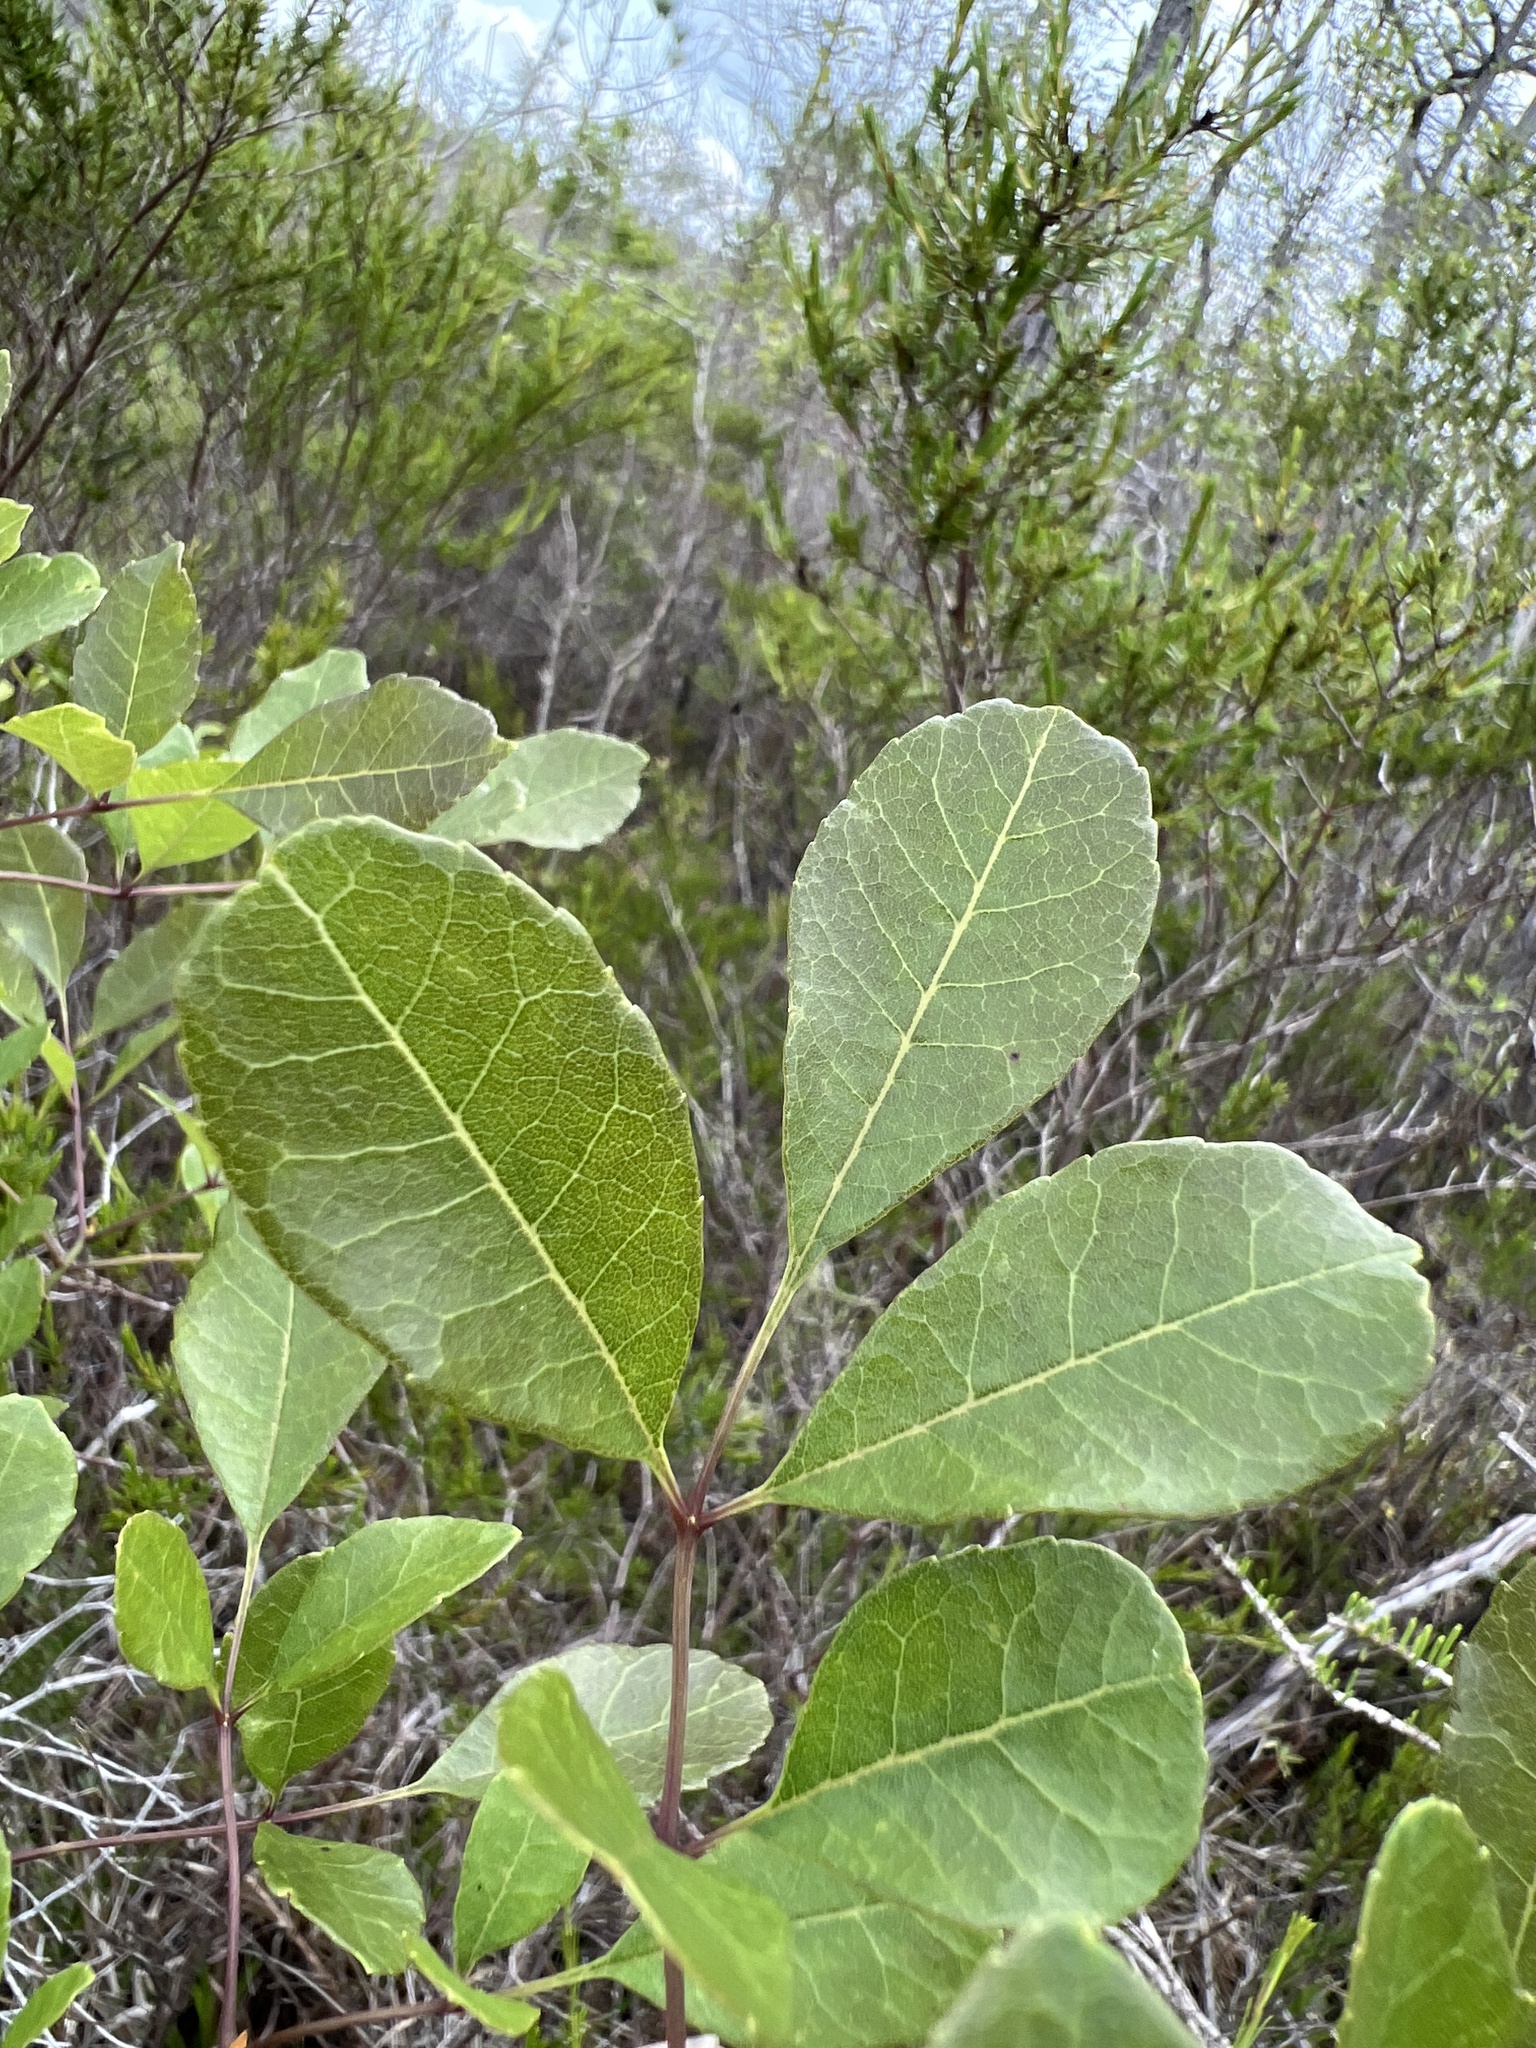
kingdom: Plantae
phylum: Tracheophyta
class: Magnoliopsida
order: Lamiales
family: Oleaceae
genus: Fraxinus
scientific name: Fraxinus caroliniana
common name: Carolina ash
